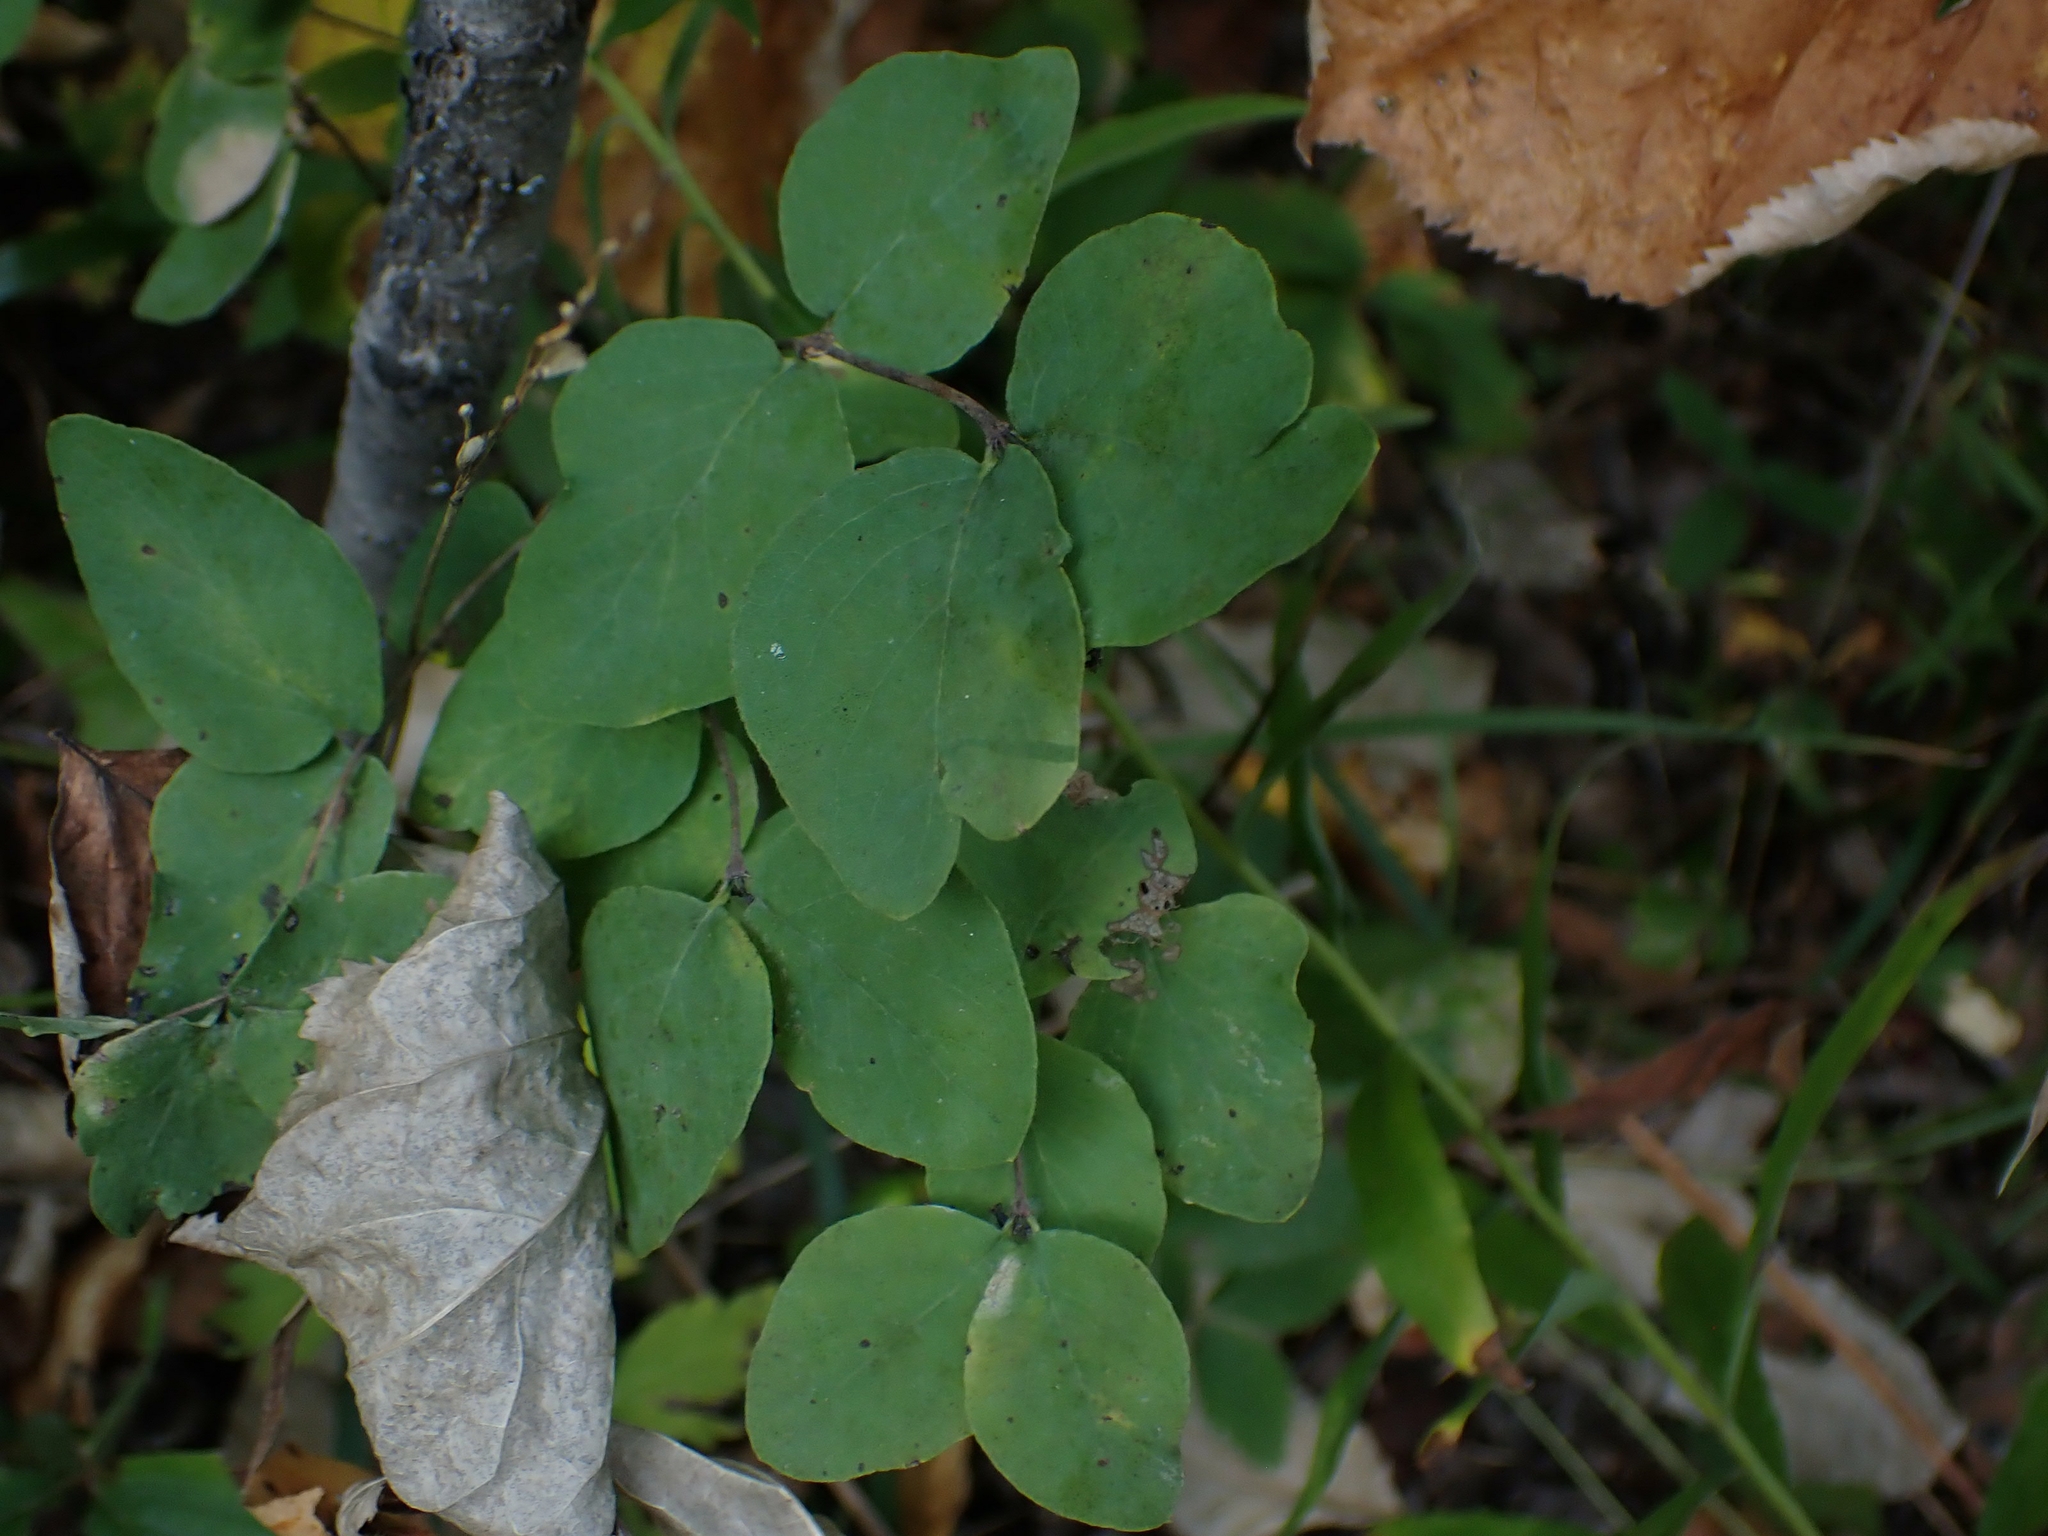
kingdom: Plantae
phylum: Tracheophyta
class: Magnoliopsida
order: Dipsacales
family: Caprifoliaceae
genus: Symphoricarpos
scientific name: Symphoricarpos occidentalis
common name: Wolfberry
